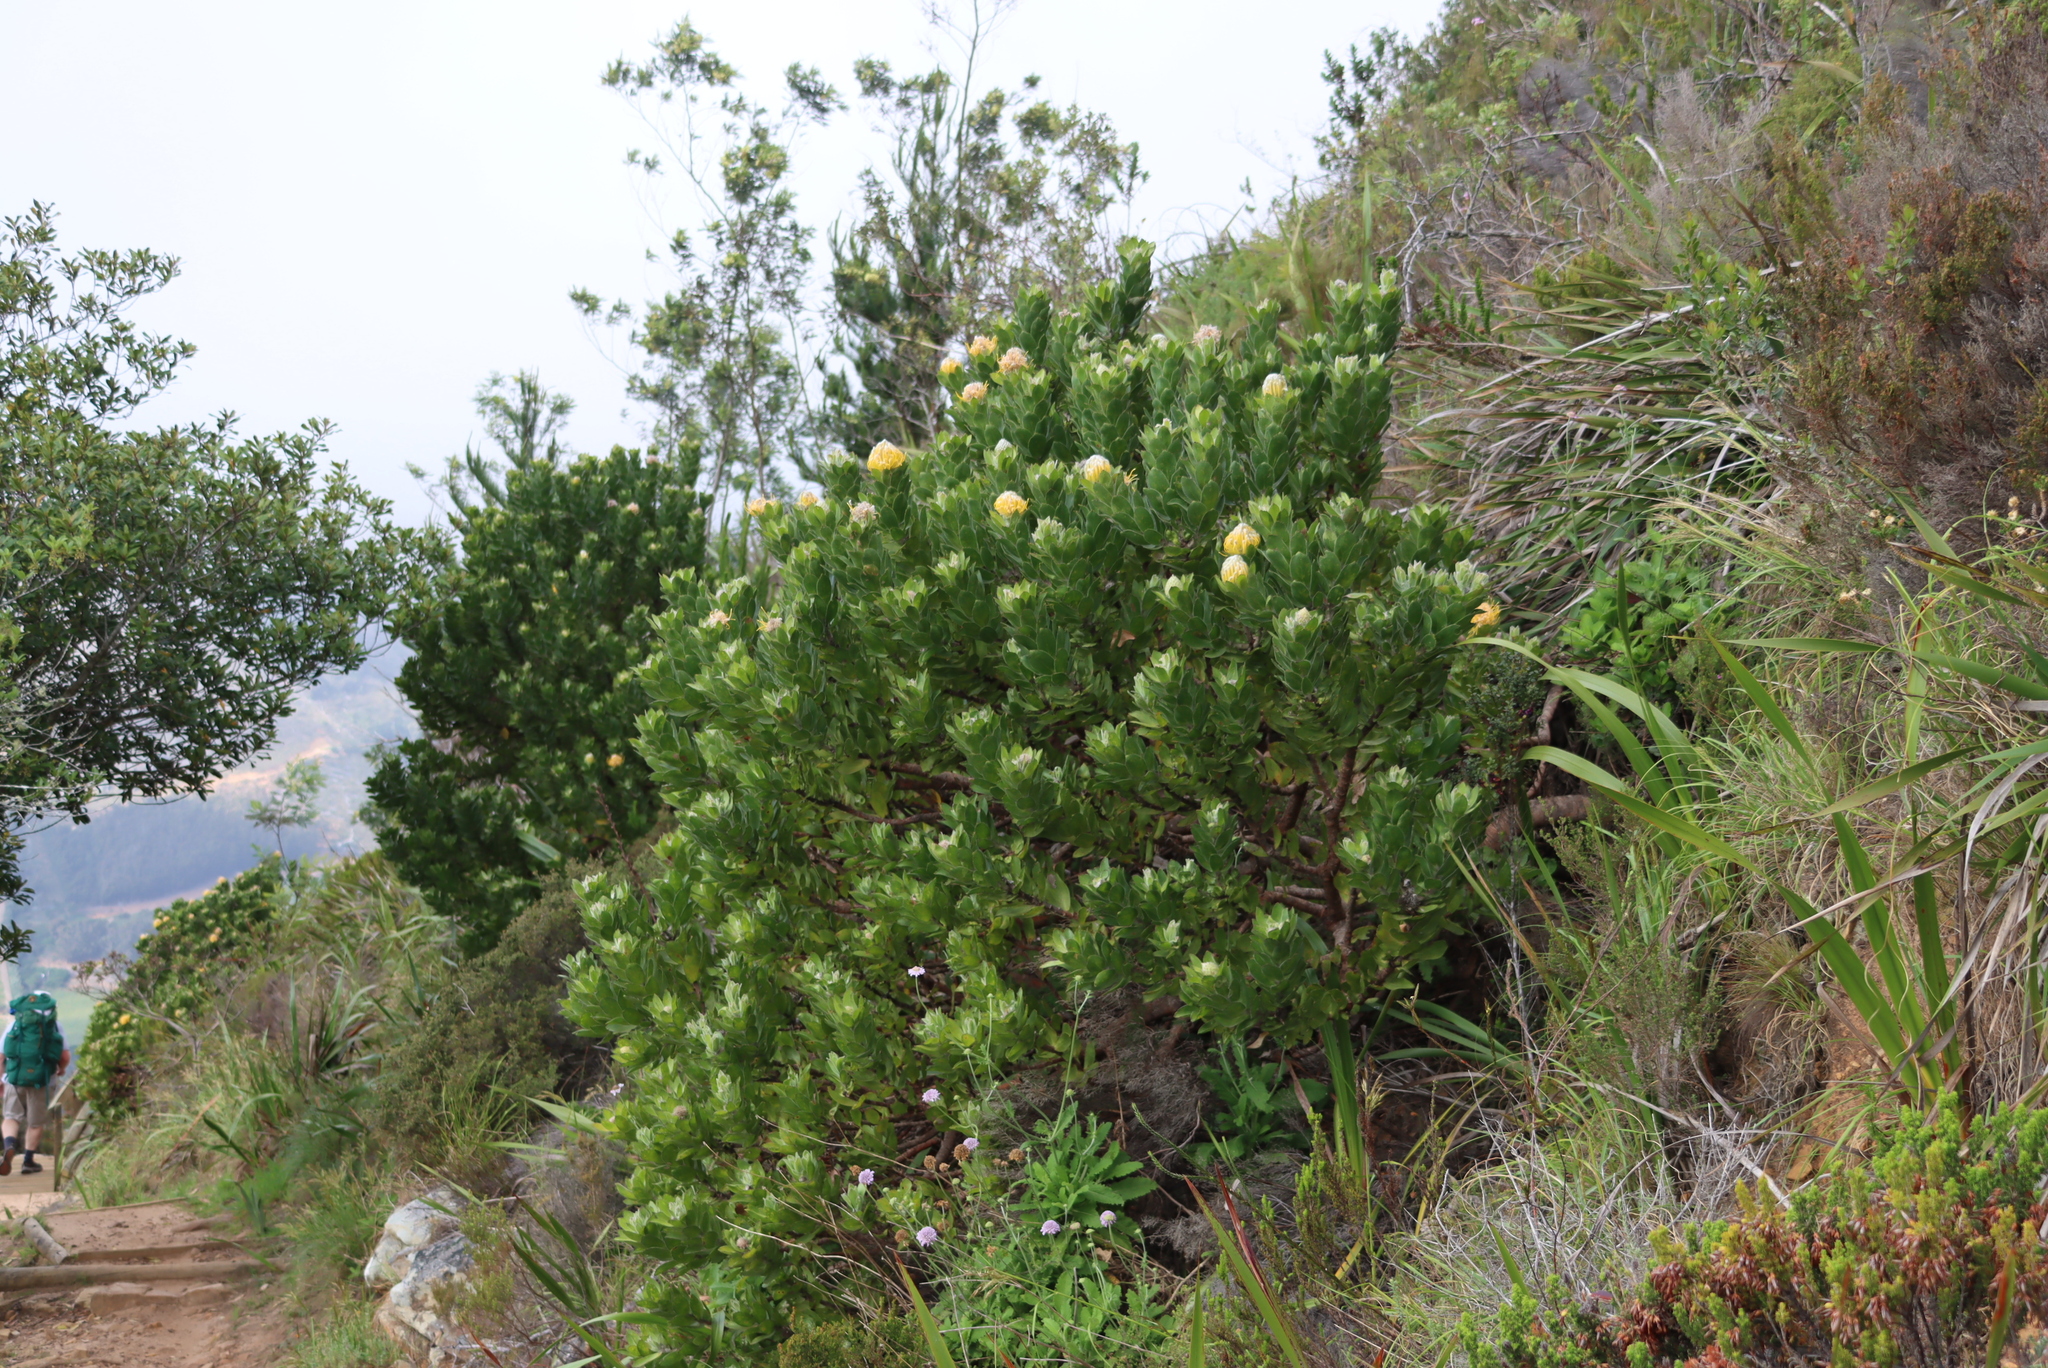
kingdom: Plantae
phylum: Tracheophyta
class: Magnoliopsida
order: Proteales
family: Proteaceae
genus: Leucospermum
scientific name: Leucospermum conocarpodendron
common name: Tree pincushion
